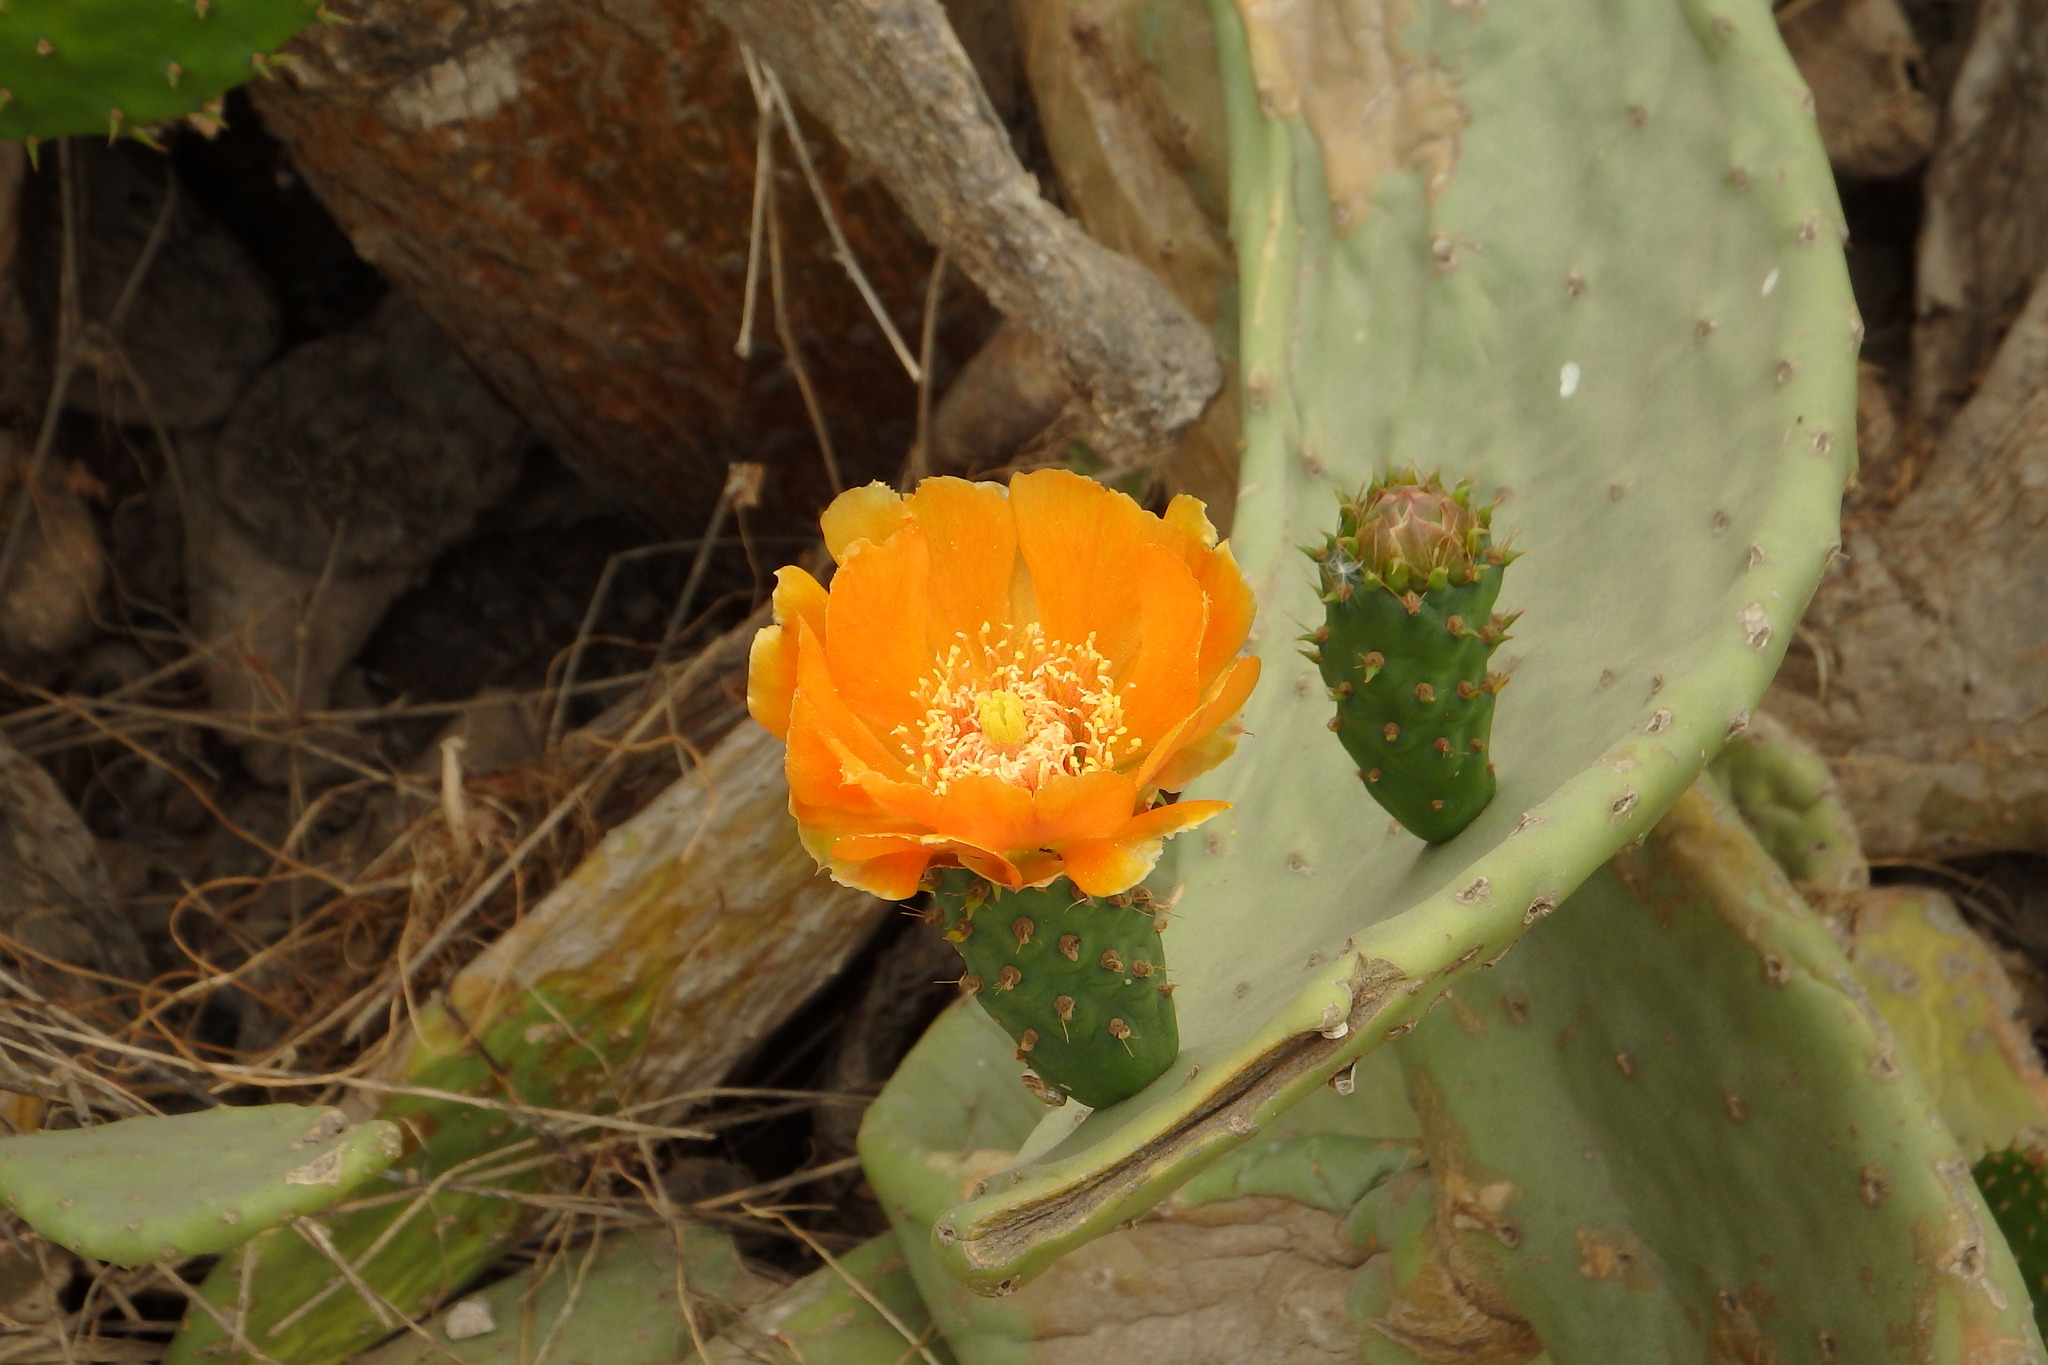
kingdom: Plantae
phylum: Tracheophyta
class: Magnoliopsida
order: Caryophyllales
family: Cactaceae
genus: Opuntia
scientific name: Opuntia ficus-indica
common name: Barbary fig
